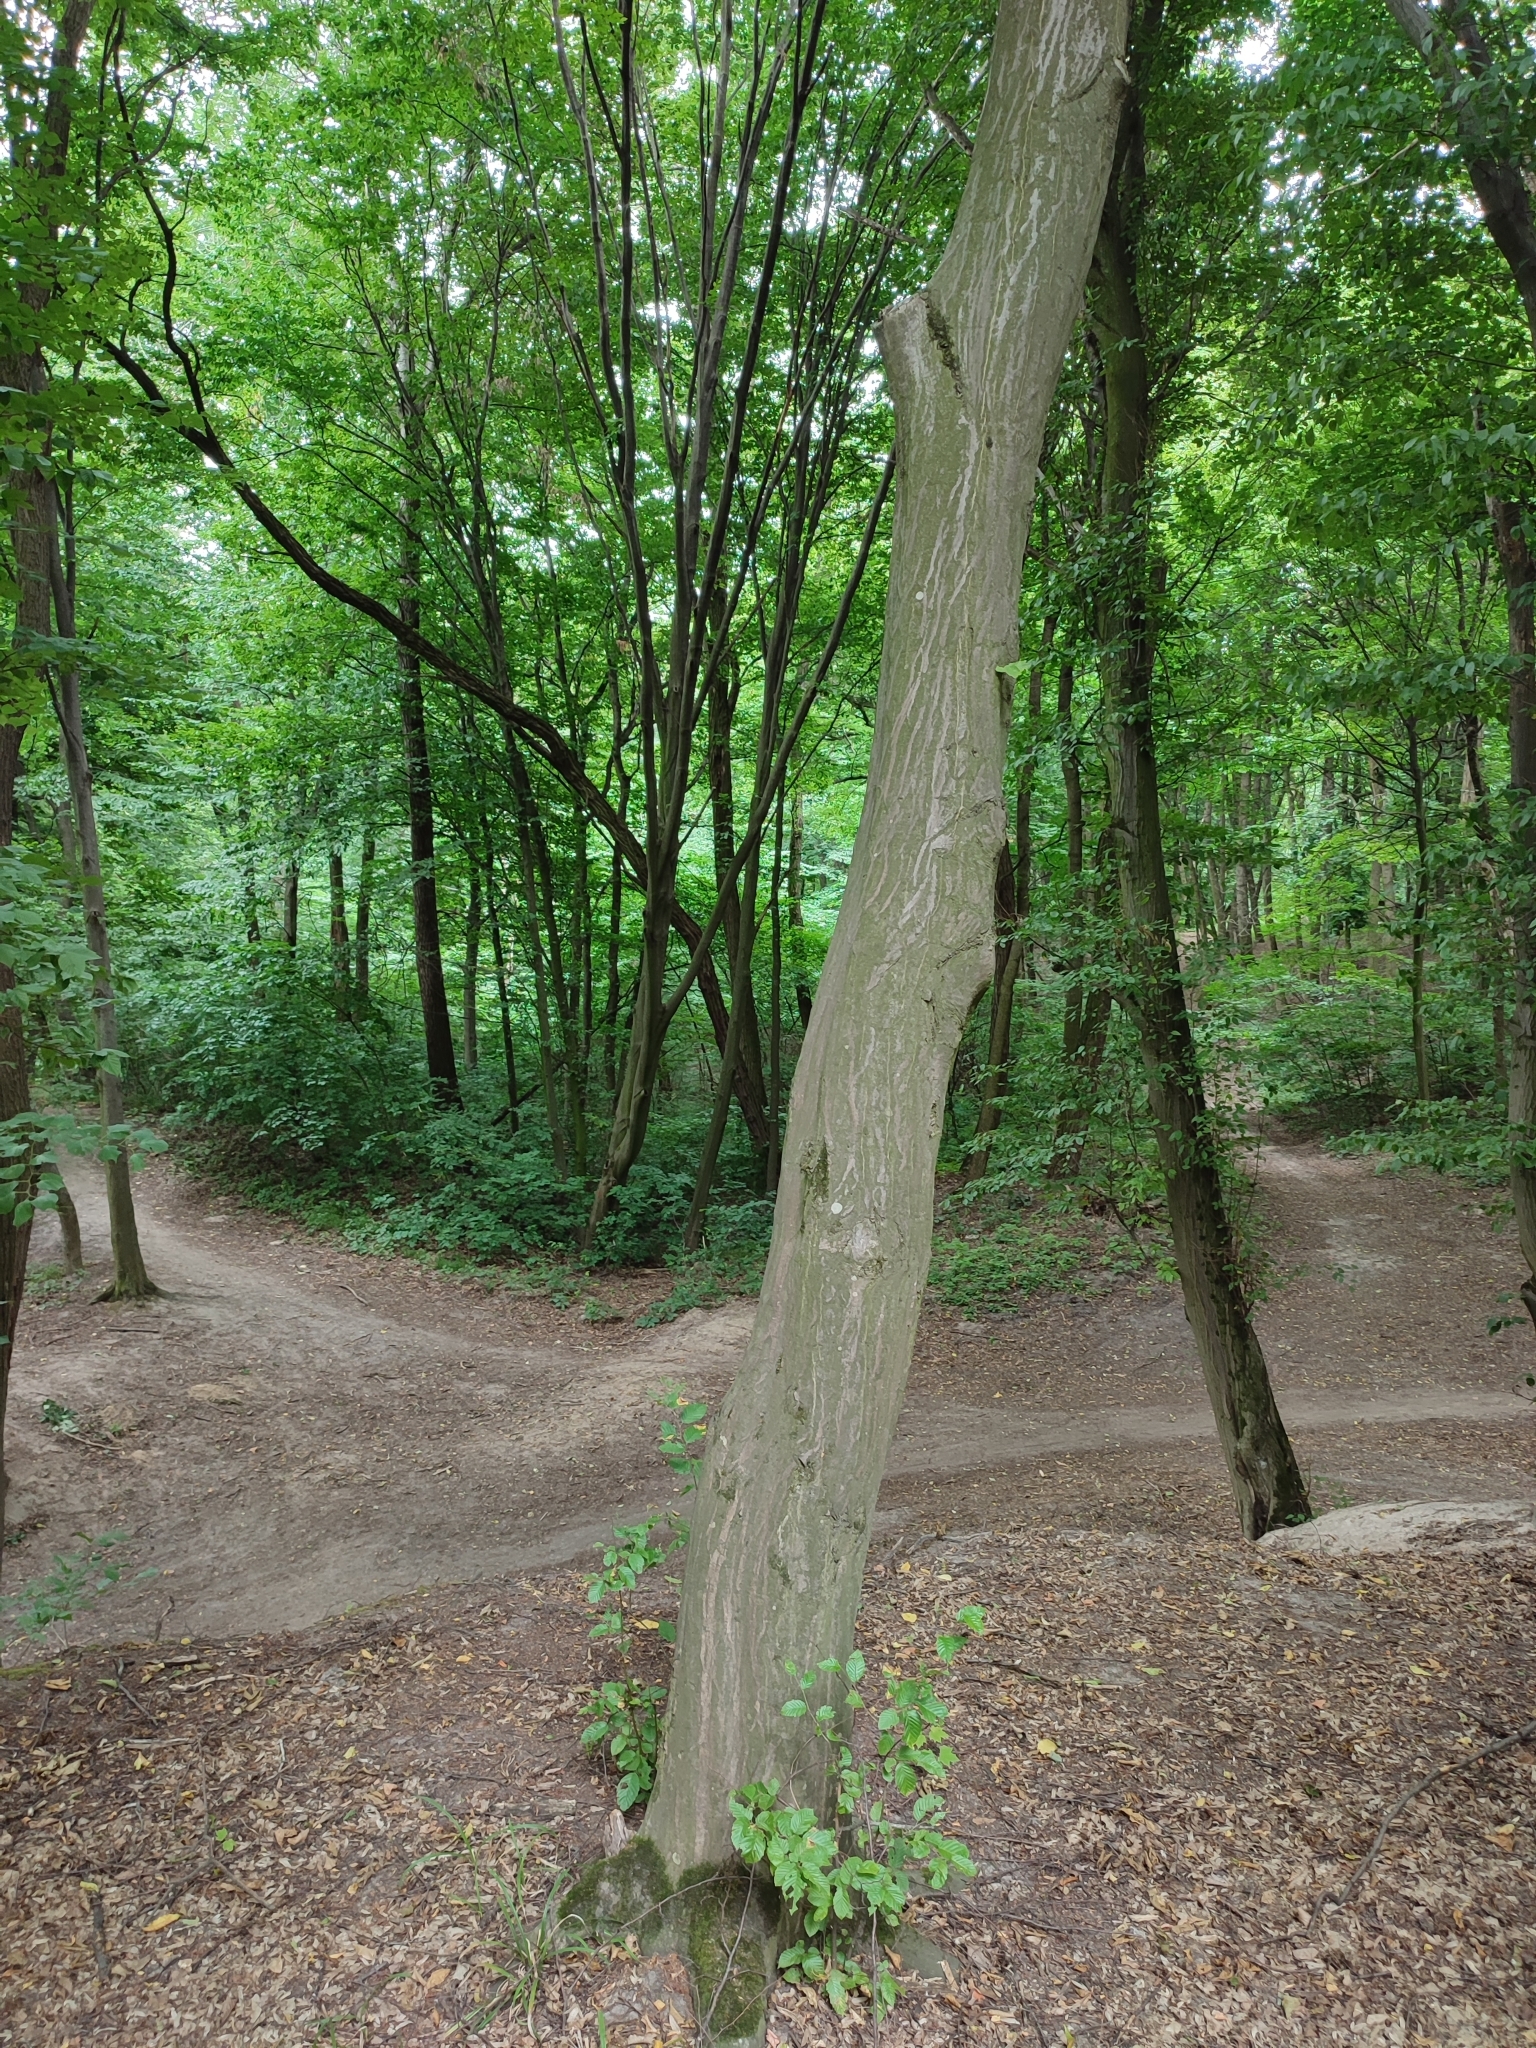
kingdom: Plantae
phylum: Tracheophyta
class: Magnoliopsida
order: Fagales
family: Betulaceae
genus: Carpinus
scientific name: Carpinus betulus
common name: Hornbeam
